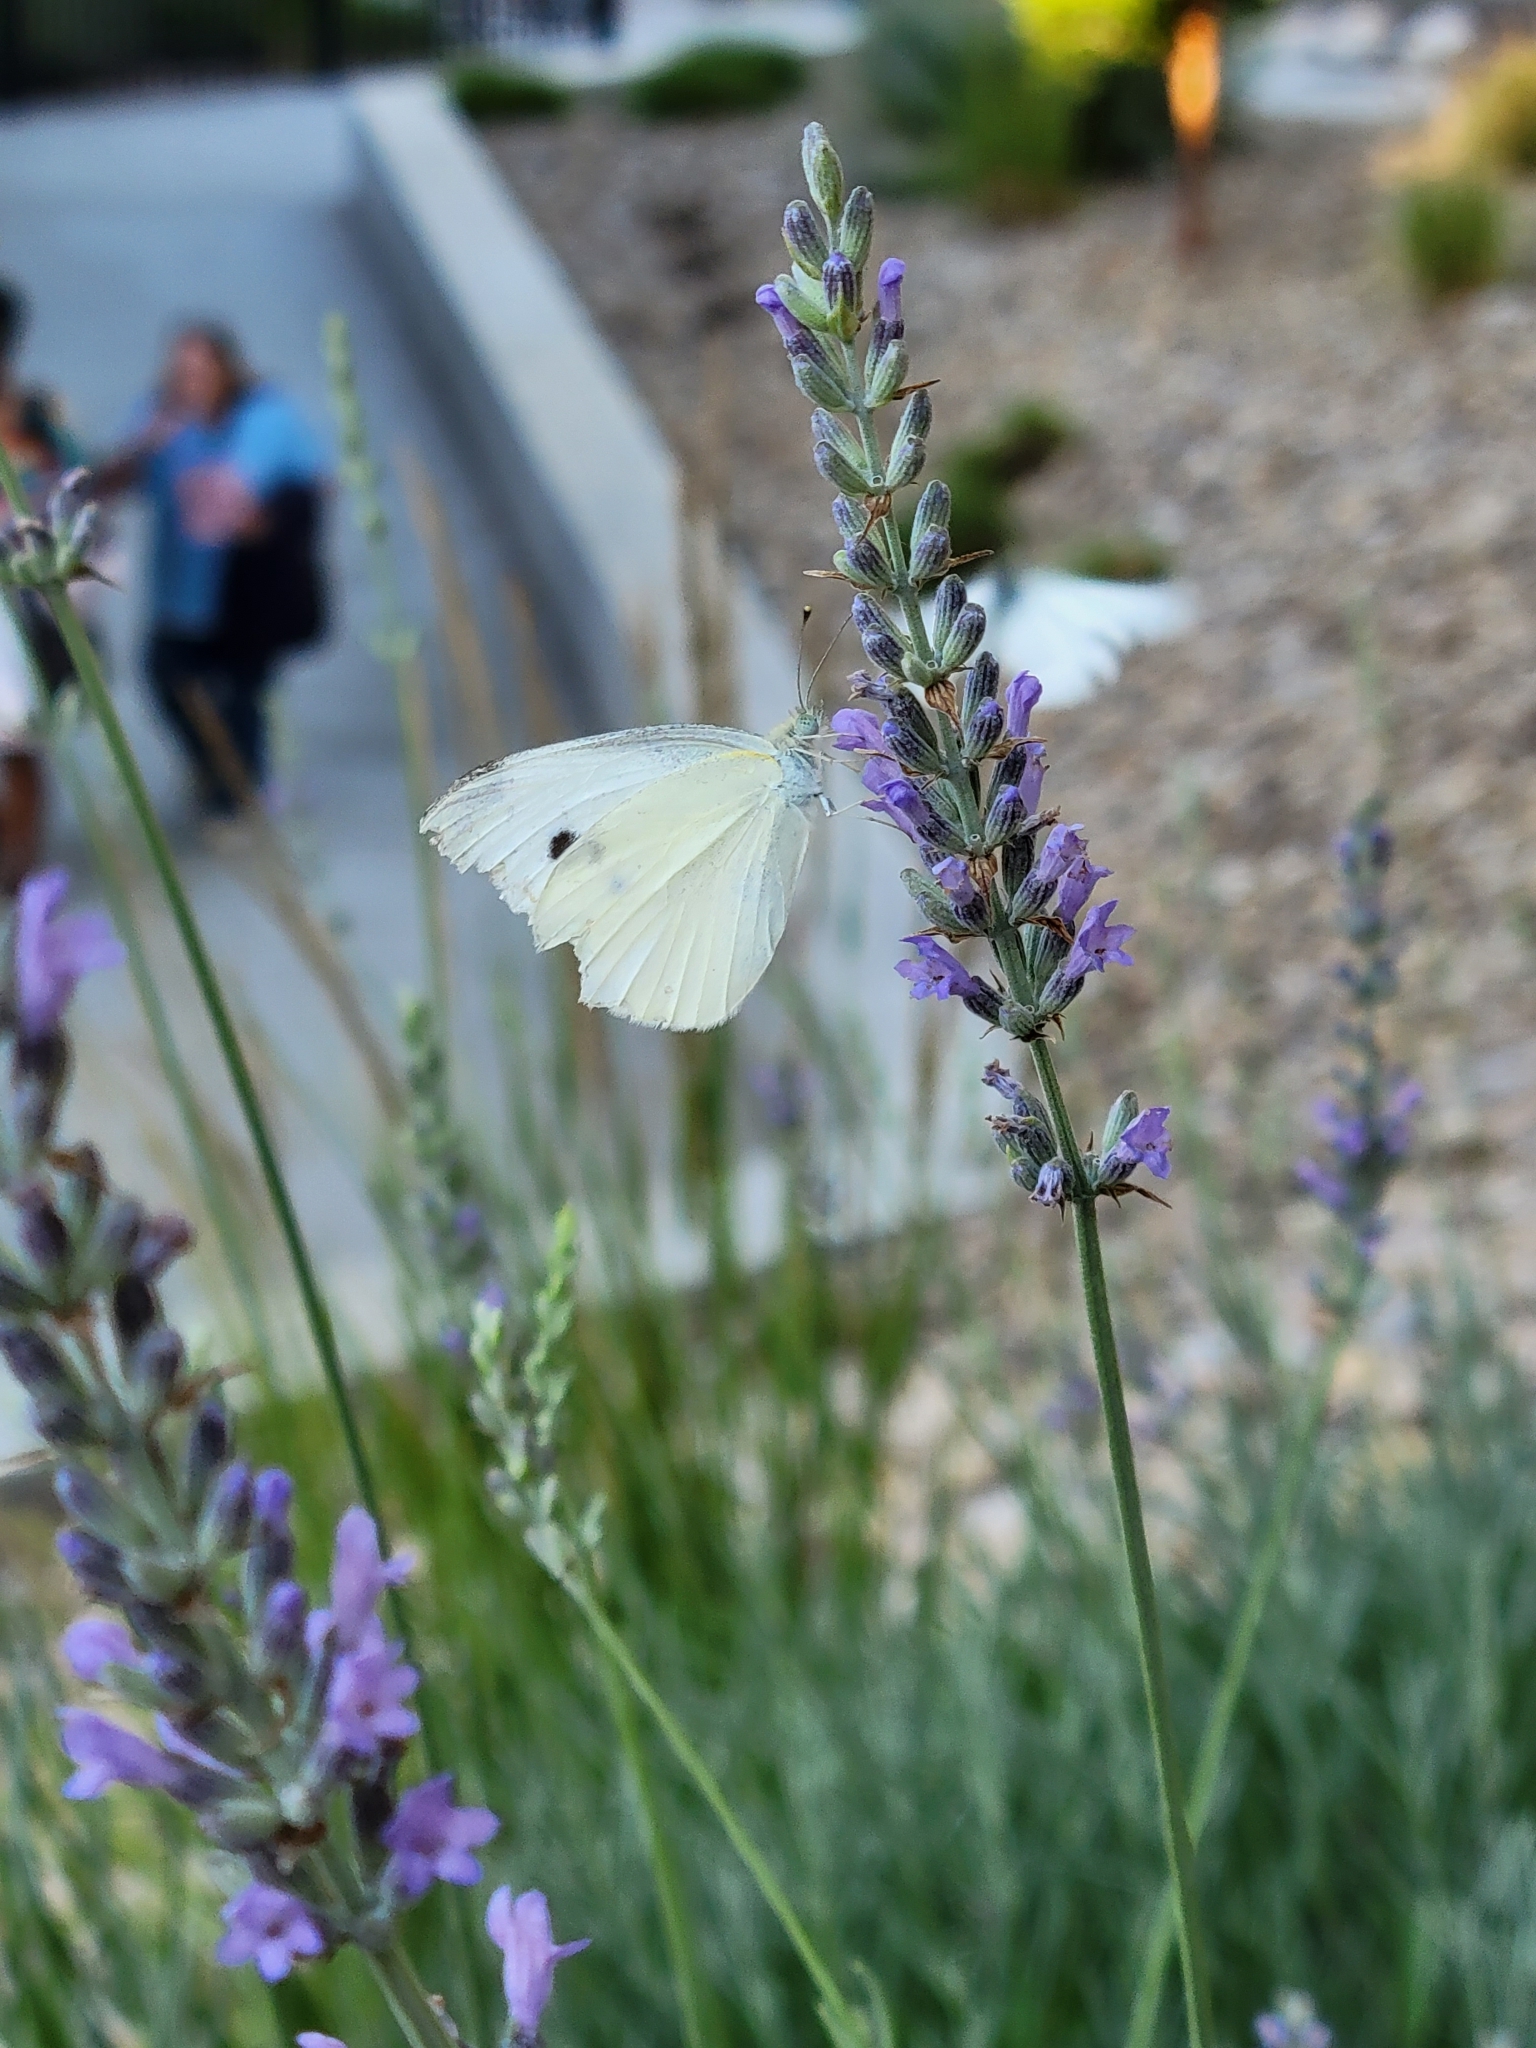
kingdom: Animalia
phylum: Arthropoda
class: Insecta
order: Lepidoptera
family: Pieridae
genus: Pieris
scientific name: Pieris rapae
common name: Small white
